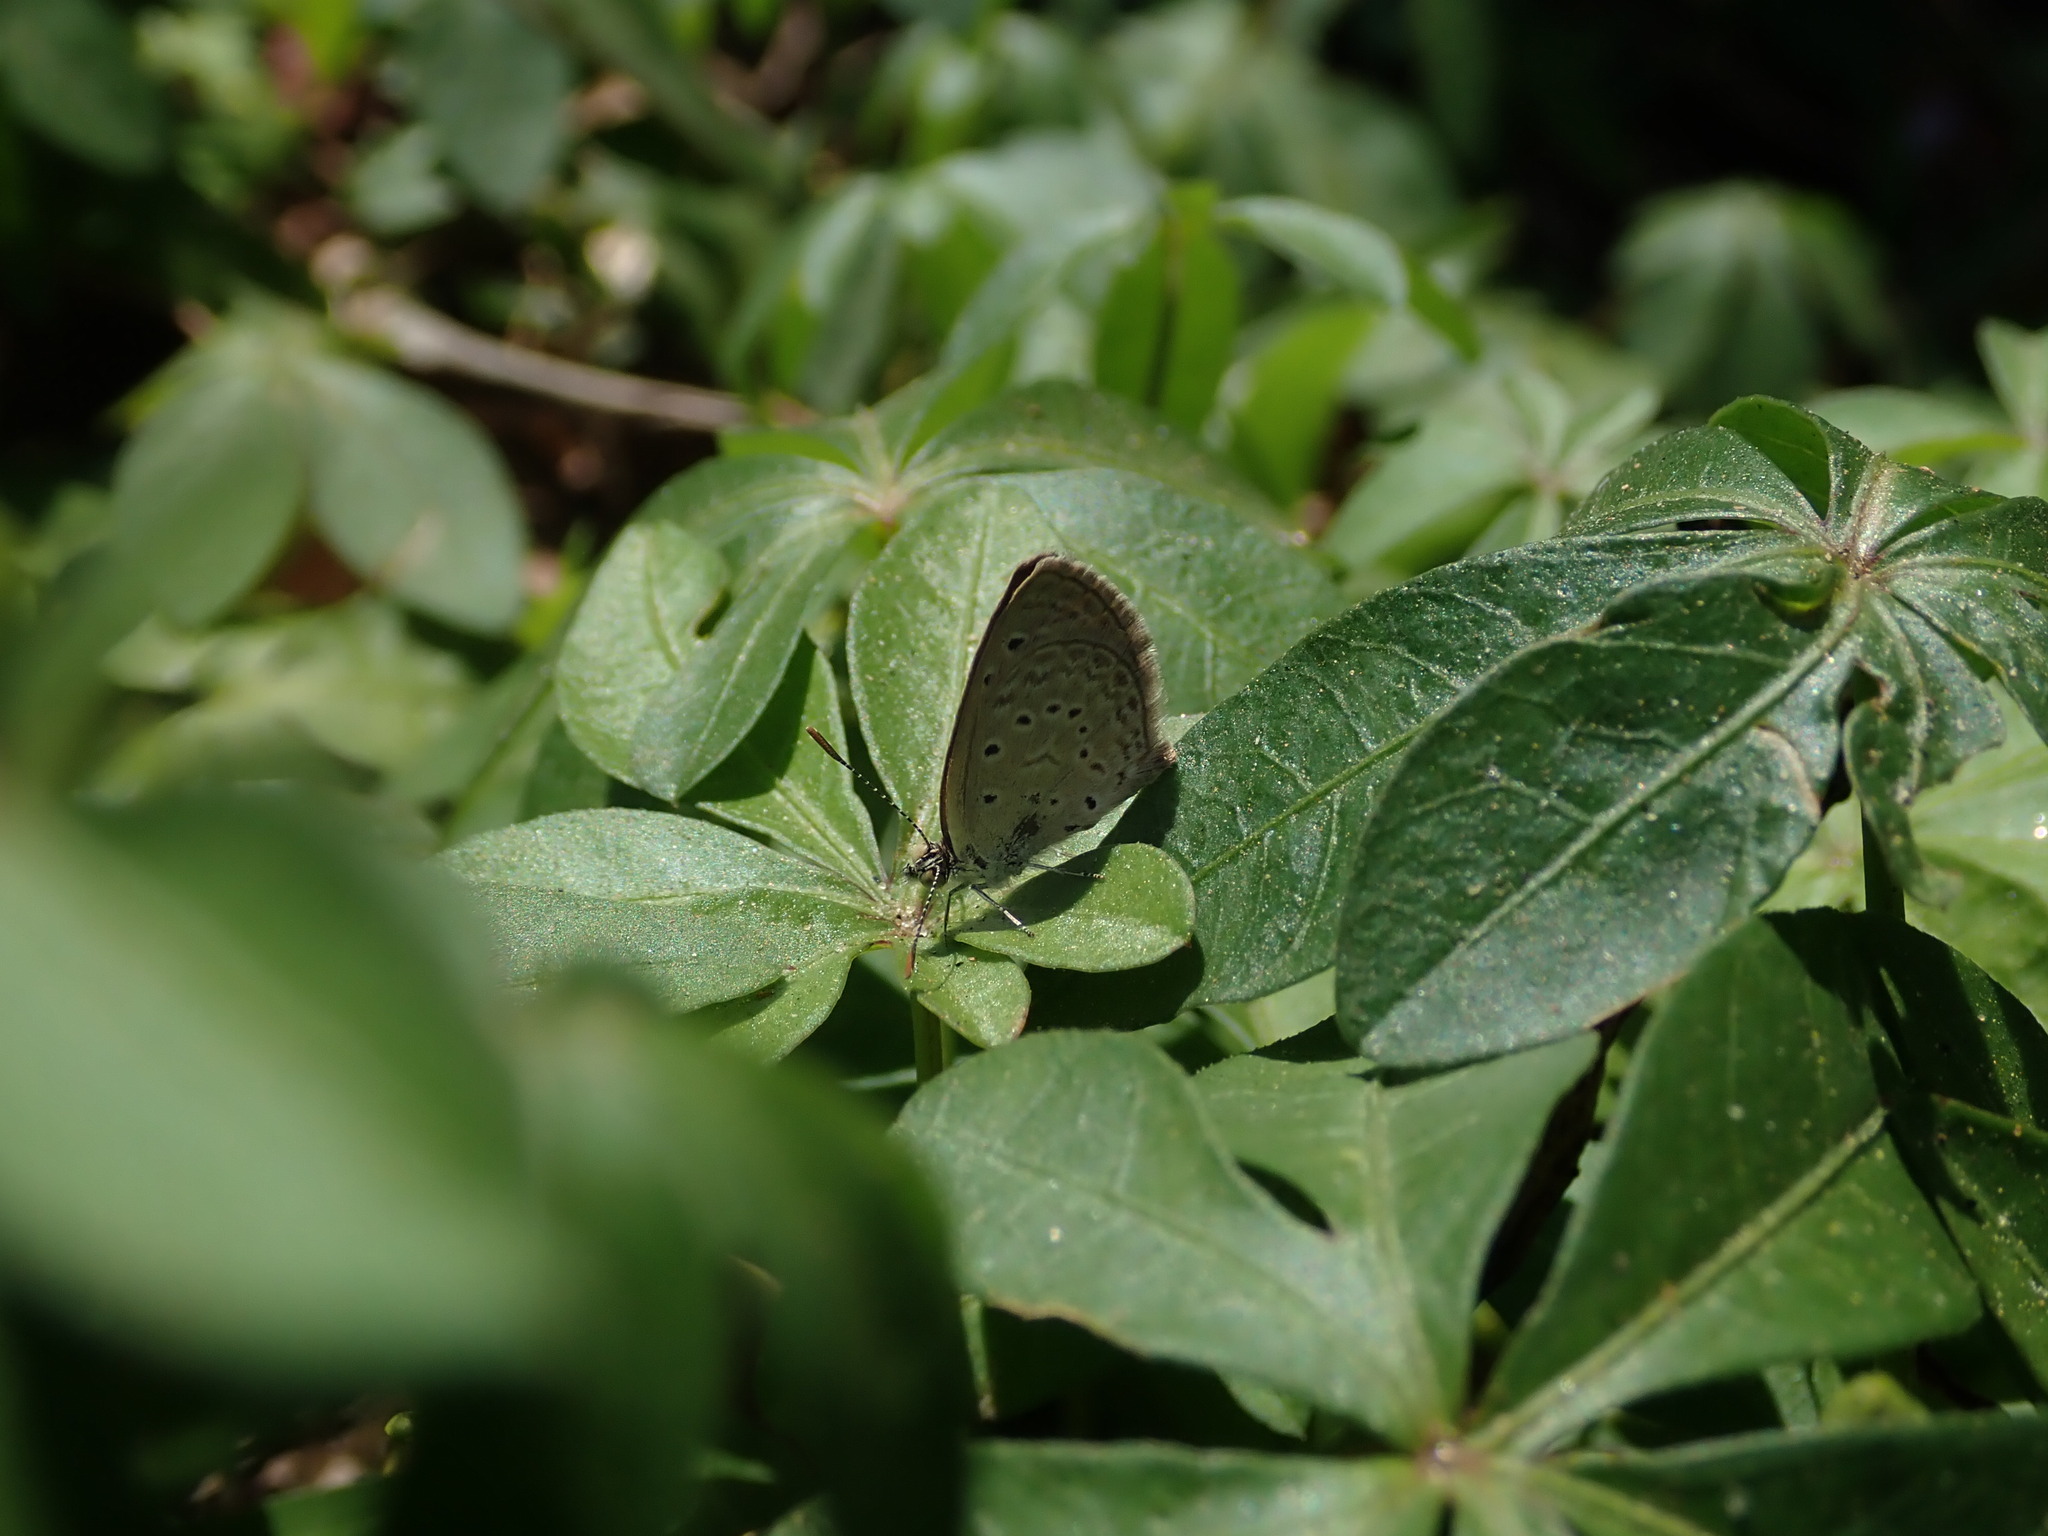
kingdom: Animalia
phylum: Arthropoda
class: Insecta
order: Lepidoptera
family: Lycaenidae
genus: Zizeeria
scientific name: Zizeeria karsandra
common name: Dark grass blue
